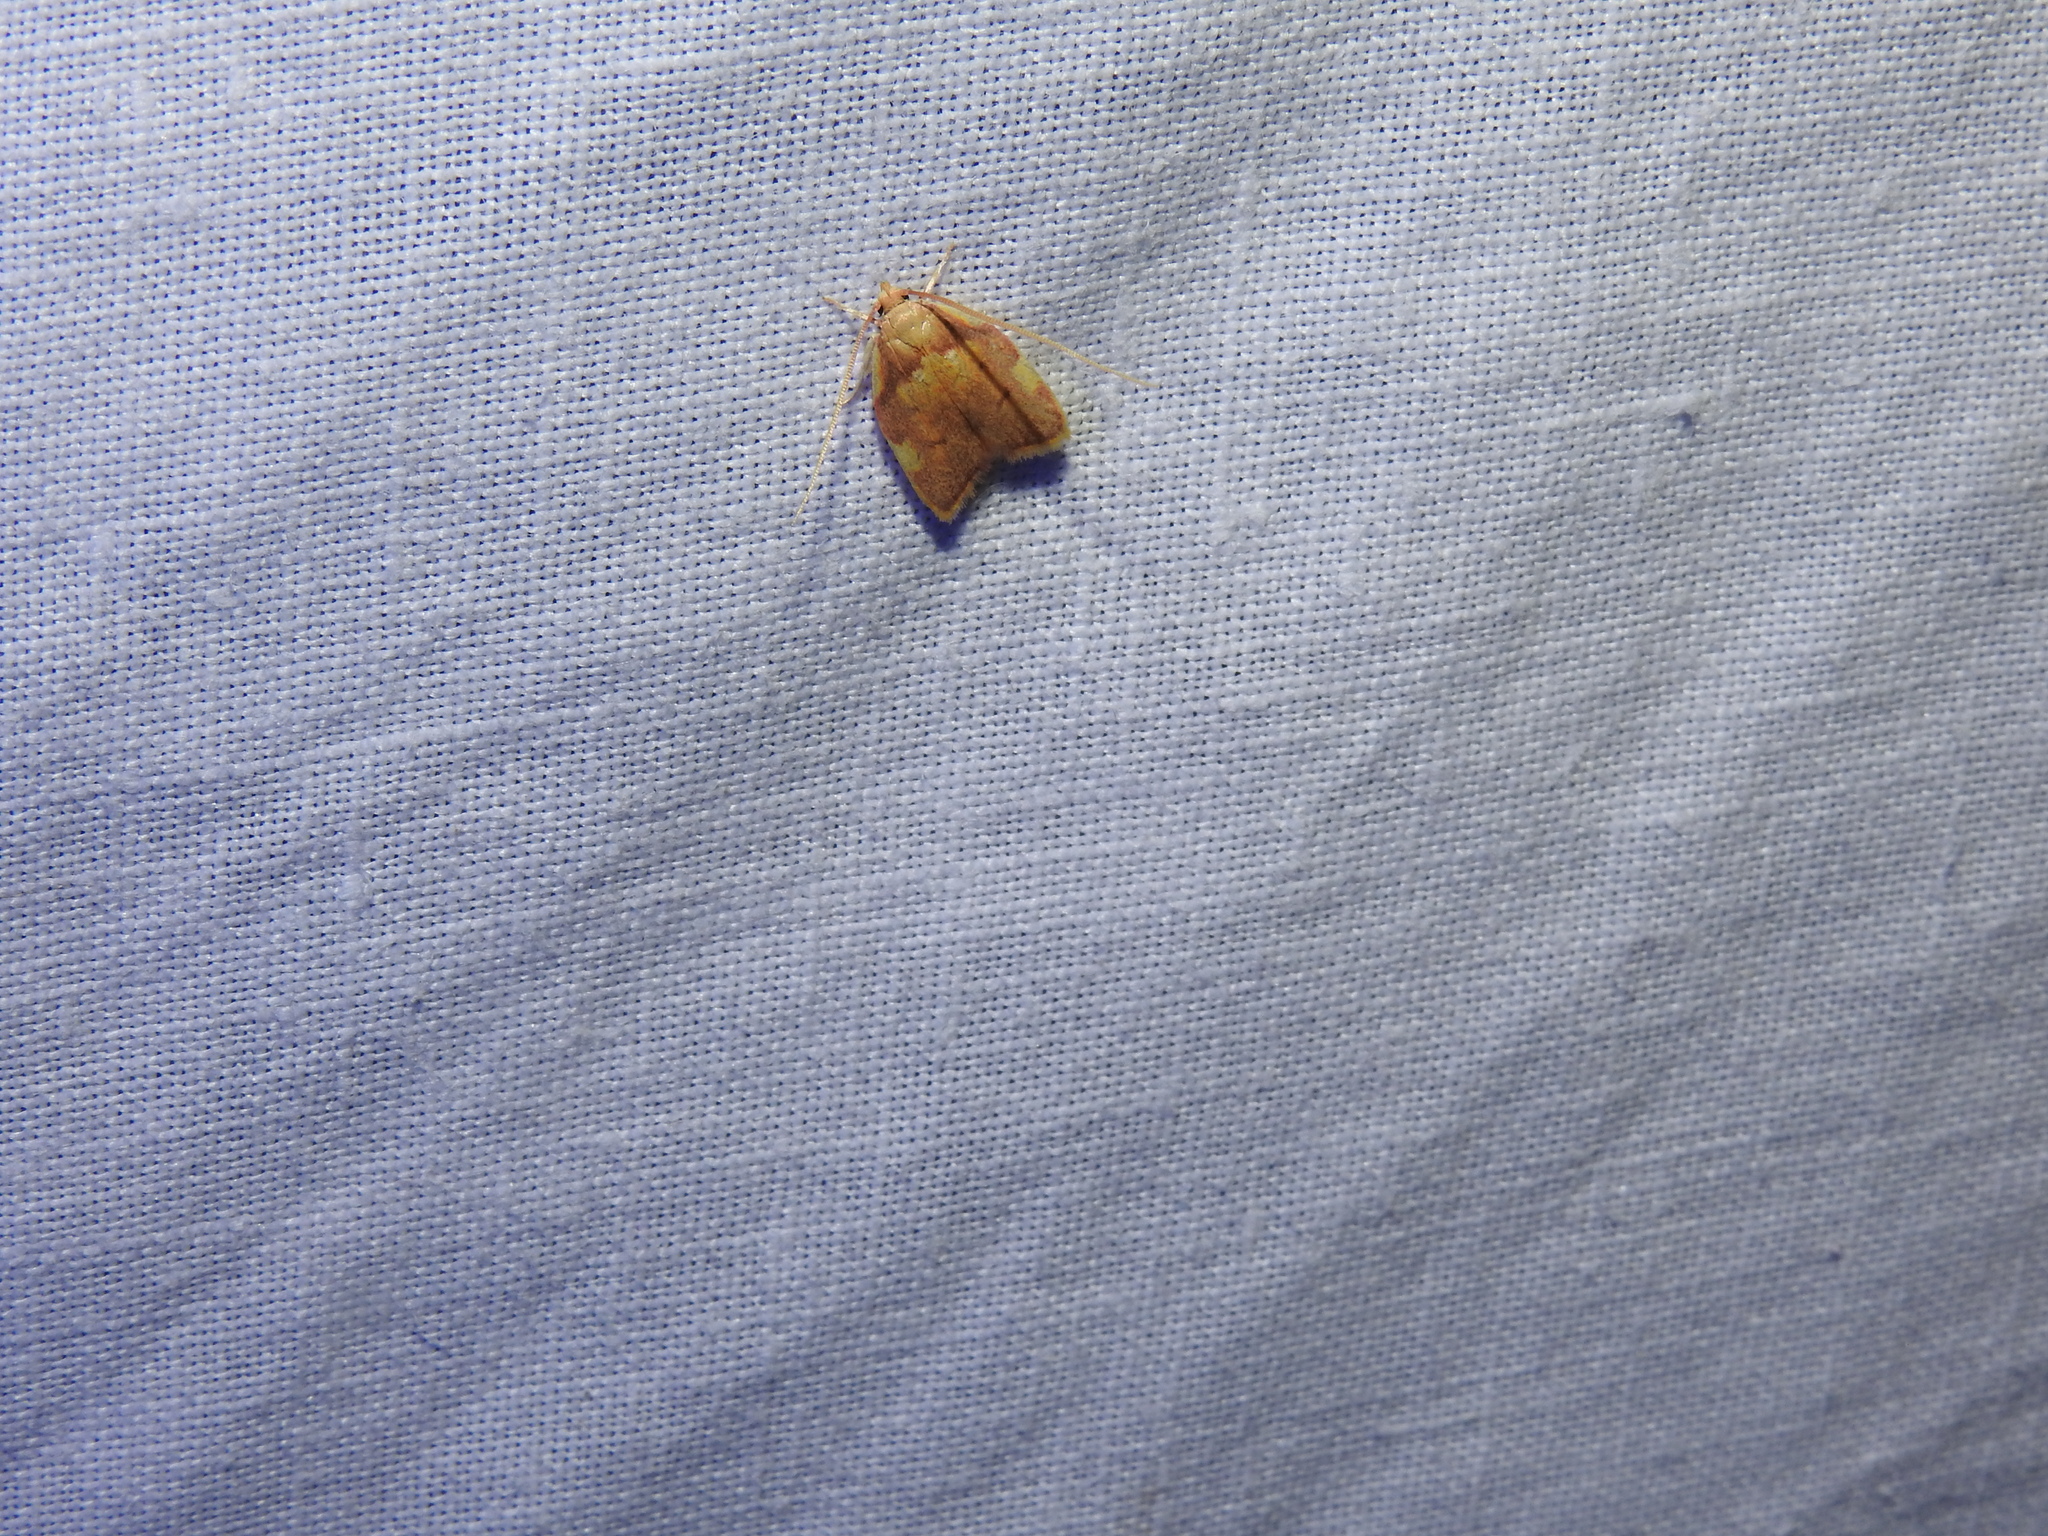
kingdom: Animalia
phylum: Arthropoda
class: Insecta
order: Lepidoptera
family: Peleopodidae
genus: Carcina
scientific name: Carcina quercana
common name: Moth
